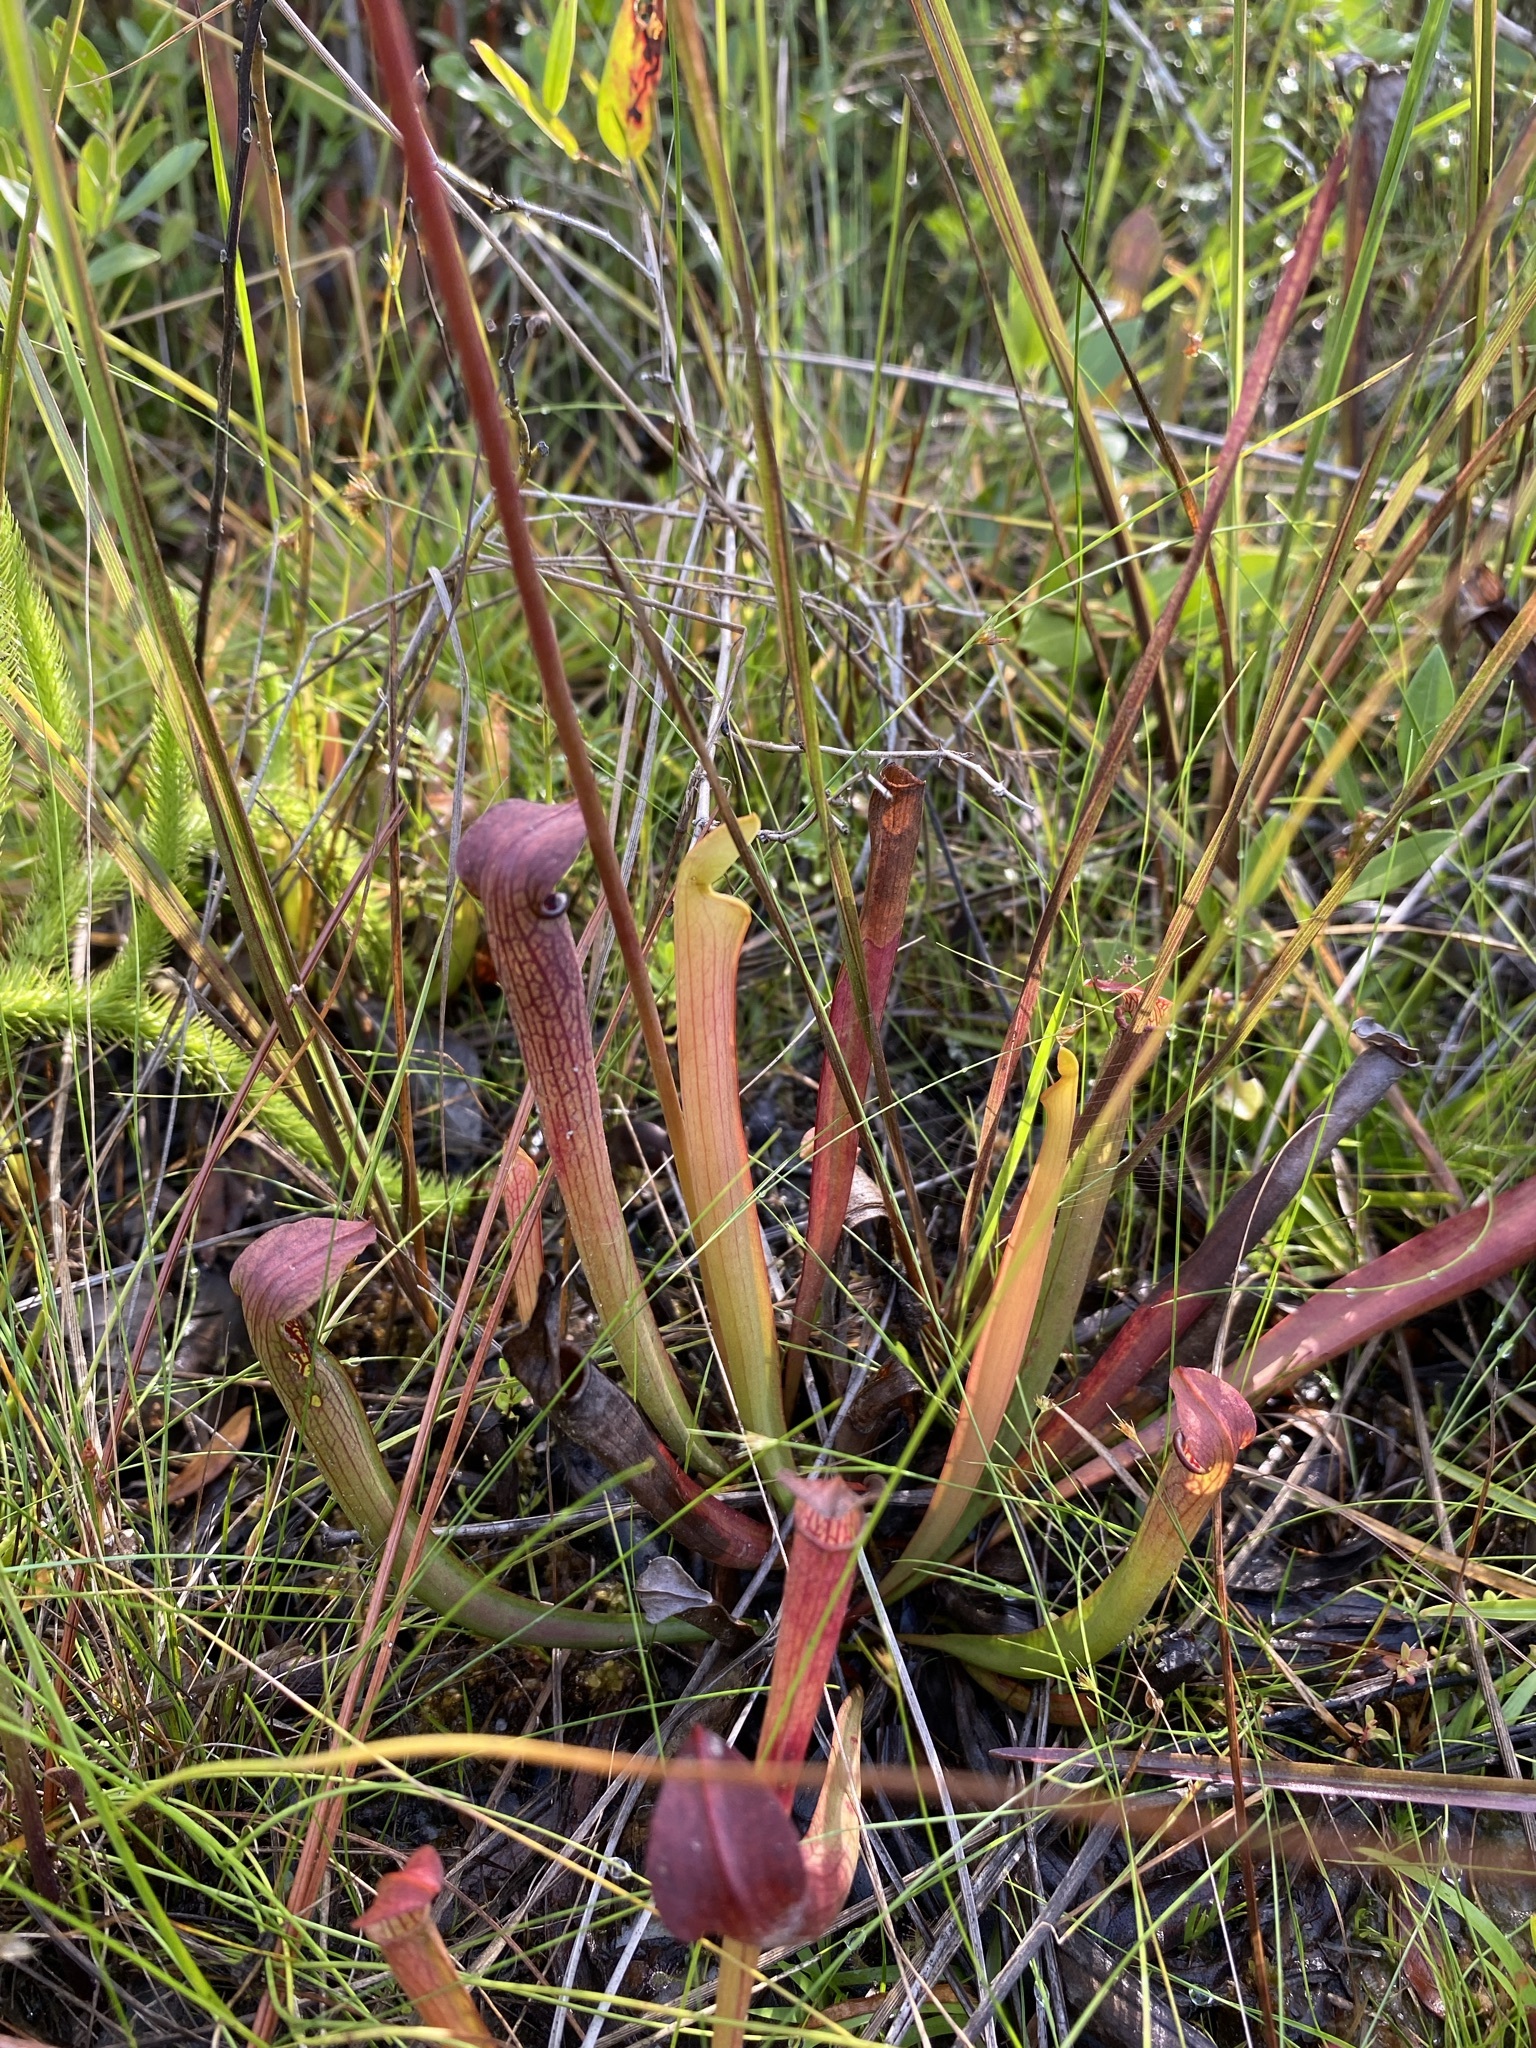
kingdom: Plantae
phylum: Tracheophyta
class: Magnoliopsida
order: Ericales
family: Sarraceniaceae
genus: Sarracenia
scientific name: Sarracenia rubra
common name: Sweet pitcherplant
